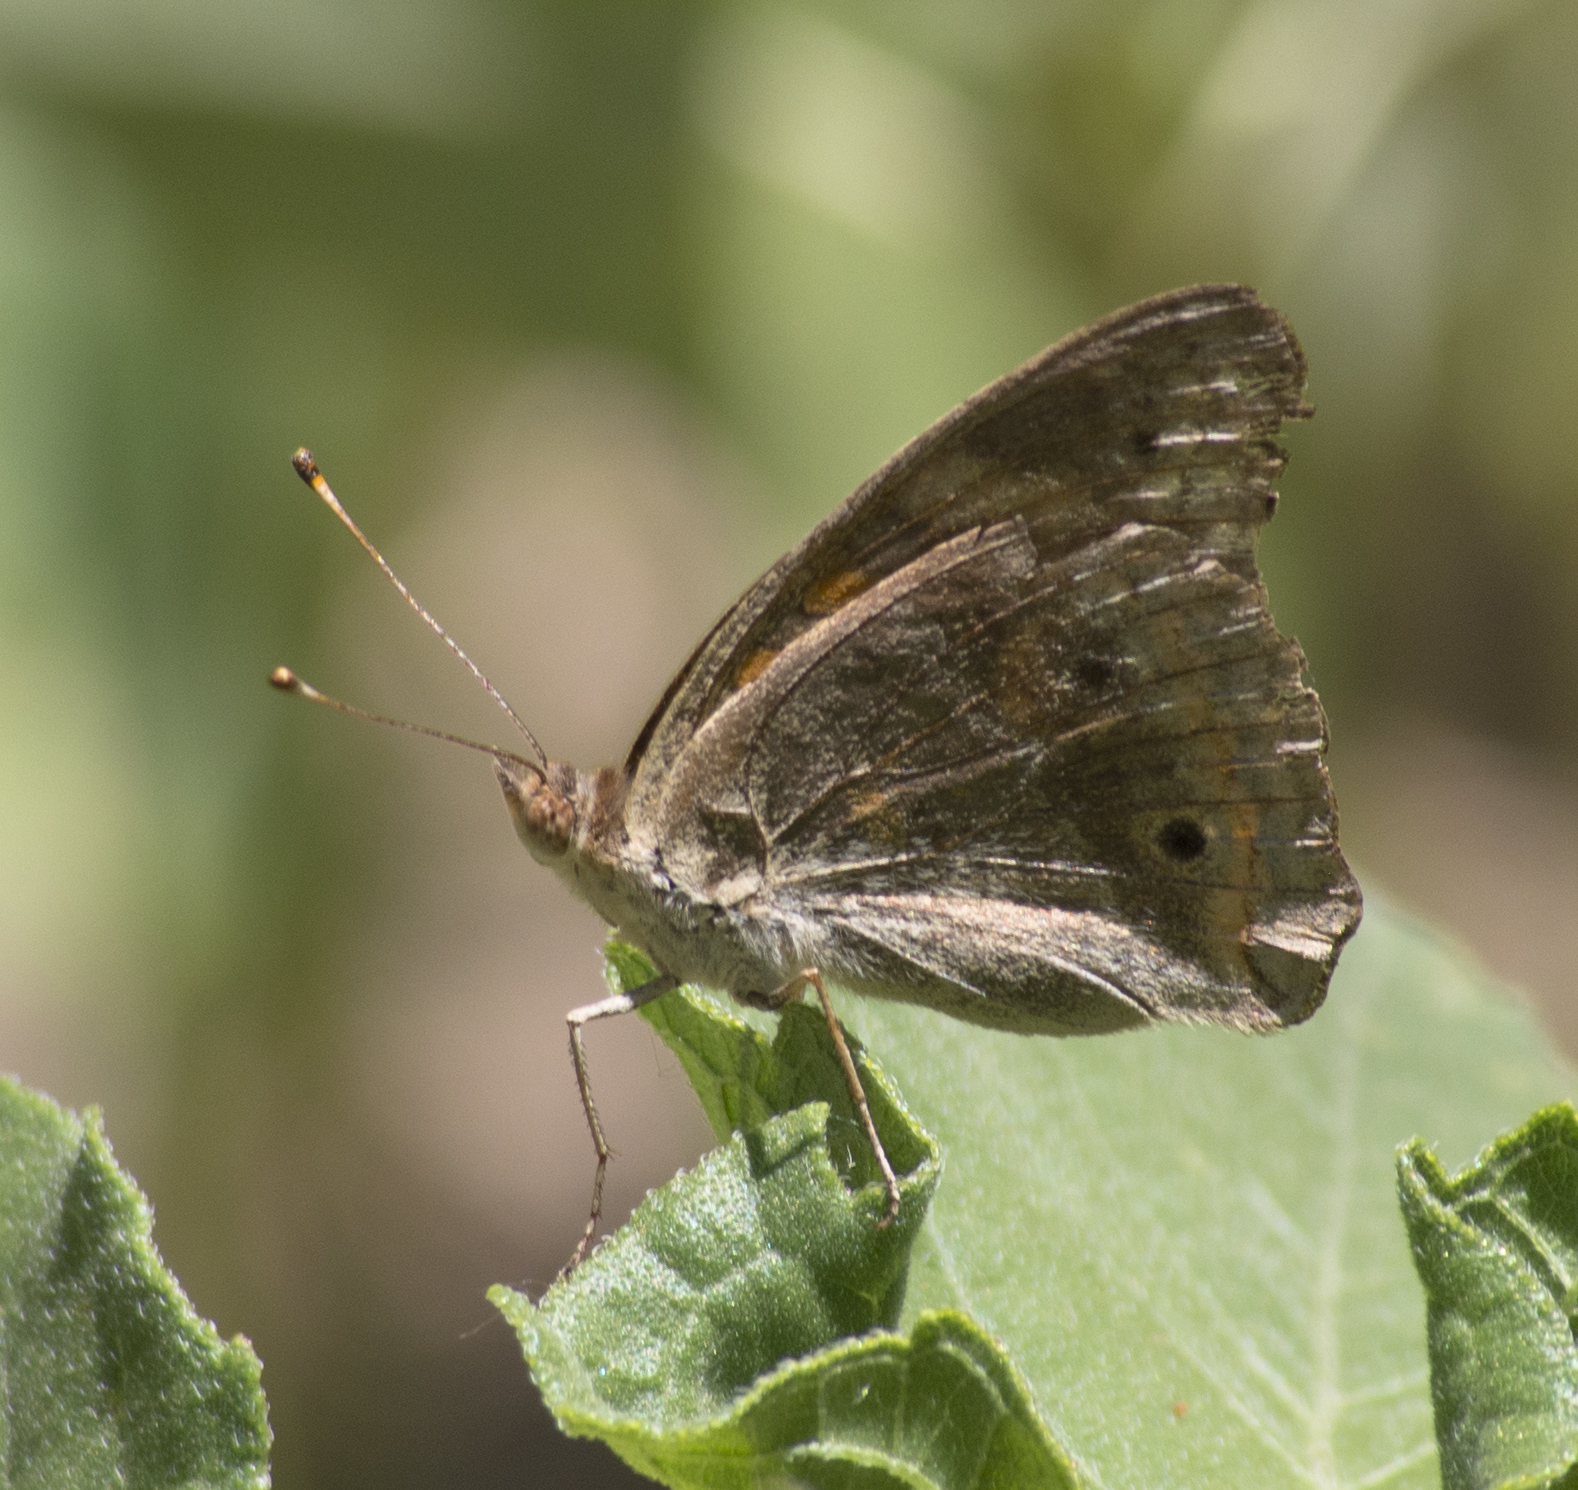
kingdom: Animalia
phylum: Arthropoda
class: Insecta
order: Lepidoptera
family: Nymphalidae
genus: Junonia
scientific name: Junonia grisea
